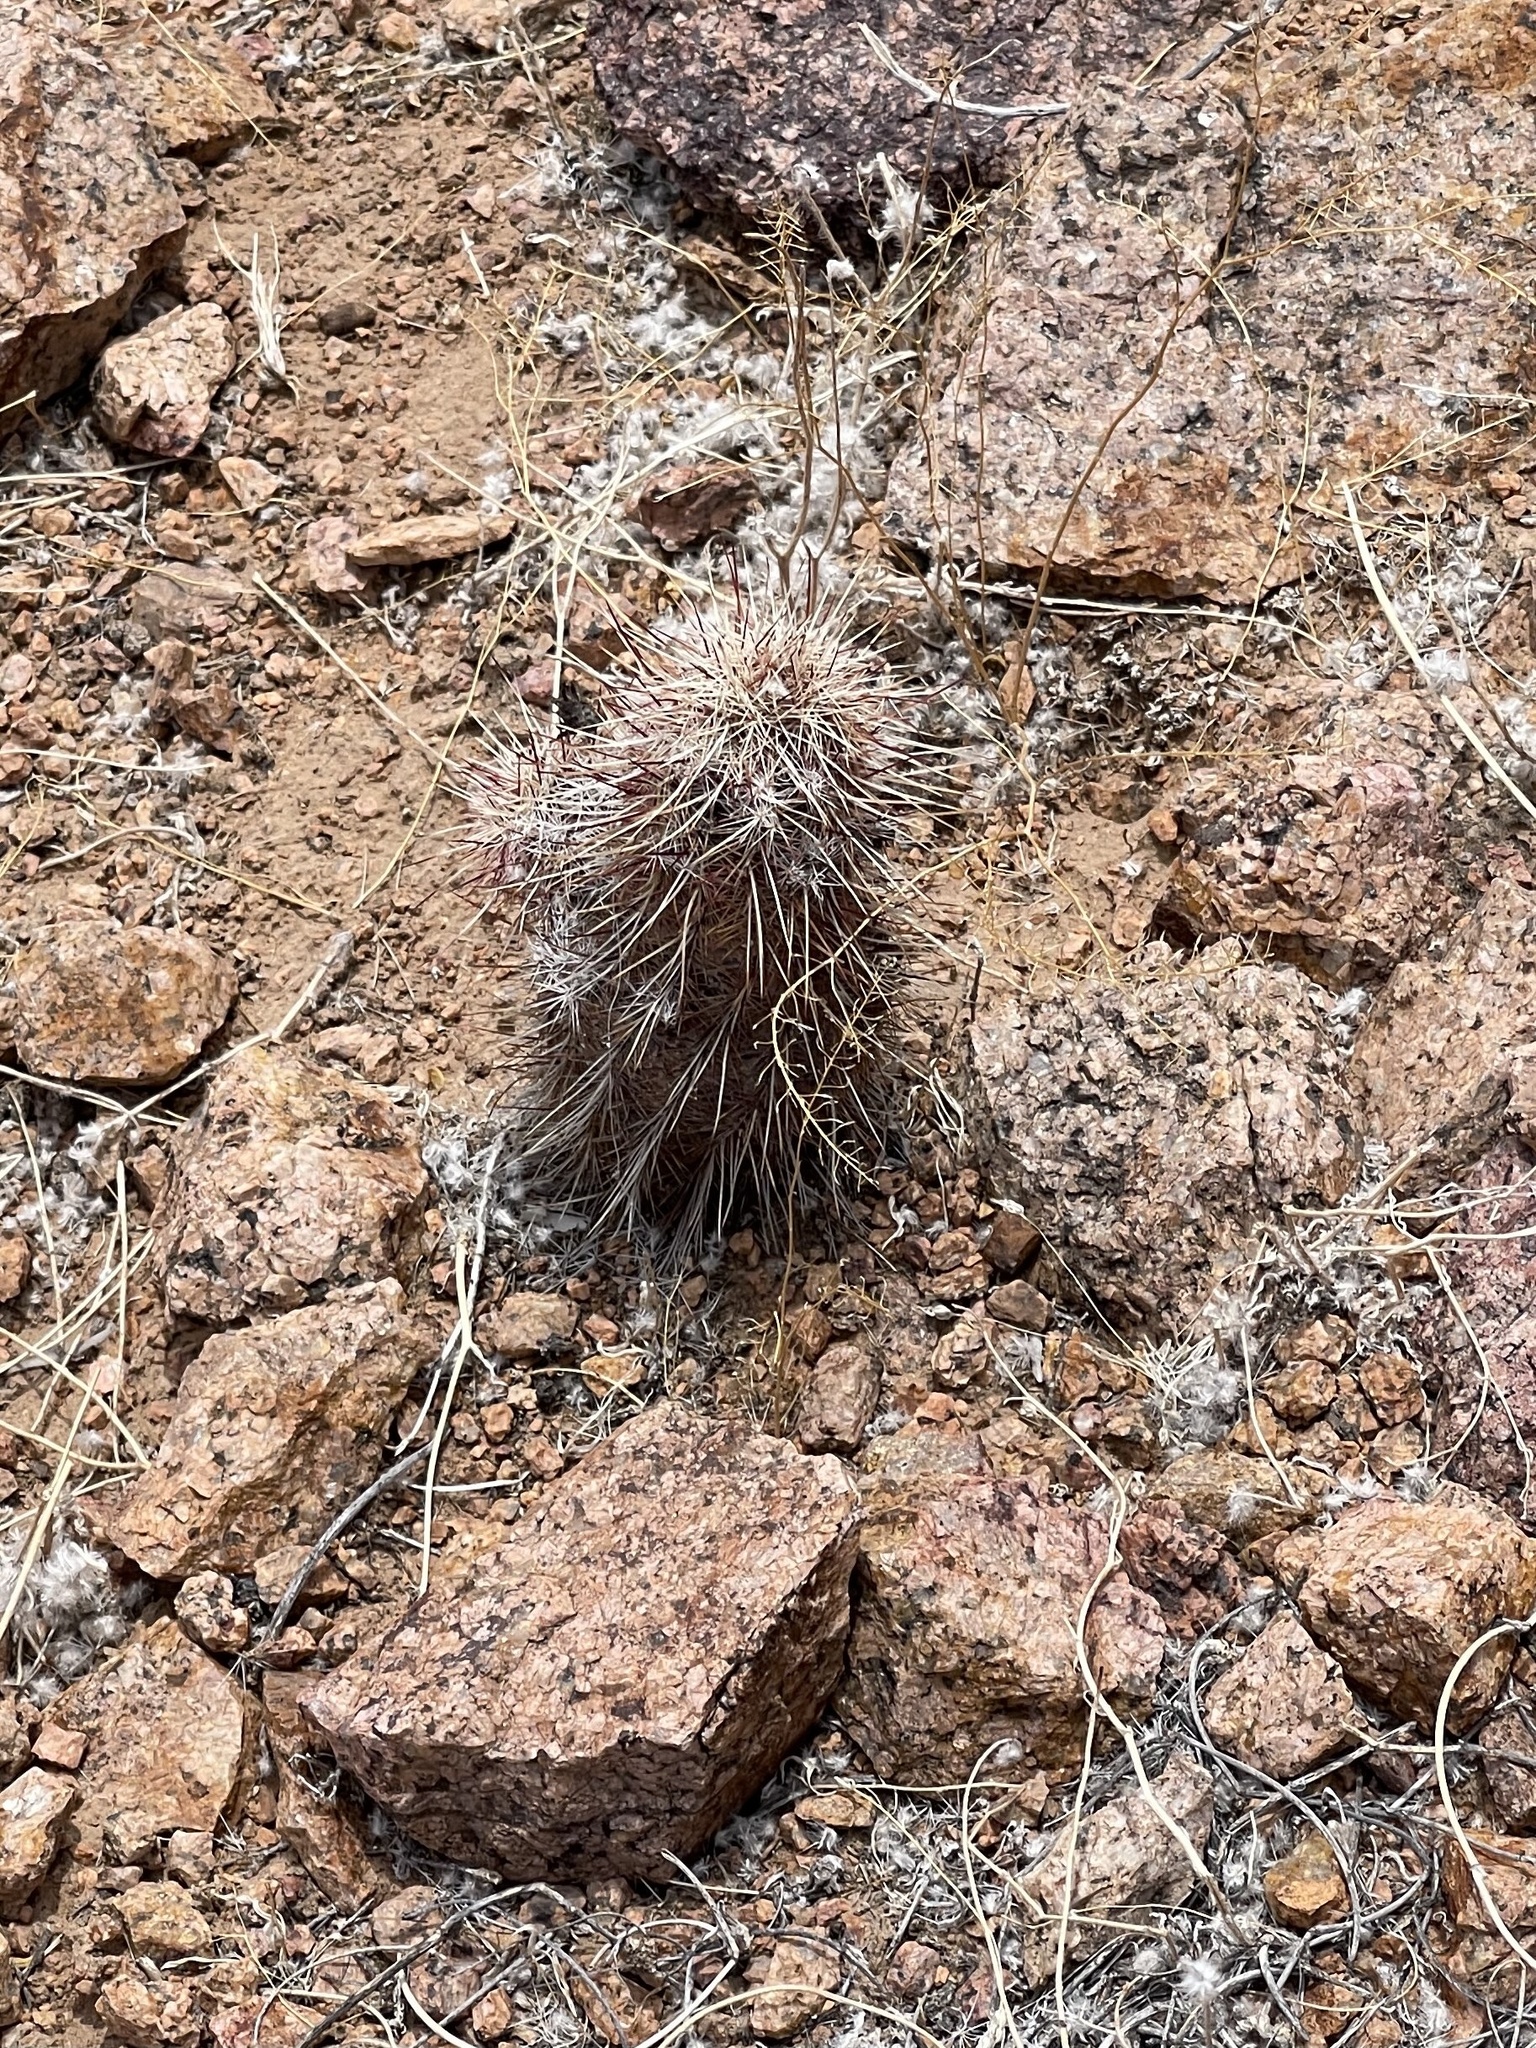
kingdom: Plantae
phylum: Tracheophyta
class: Magnoliopsida
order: Caryophyllales
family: Cactaceae
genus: Echinocereus
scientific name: Echinocereus viridiflorus
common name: Nylon hedgehog cactus
